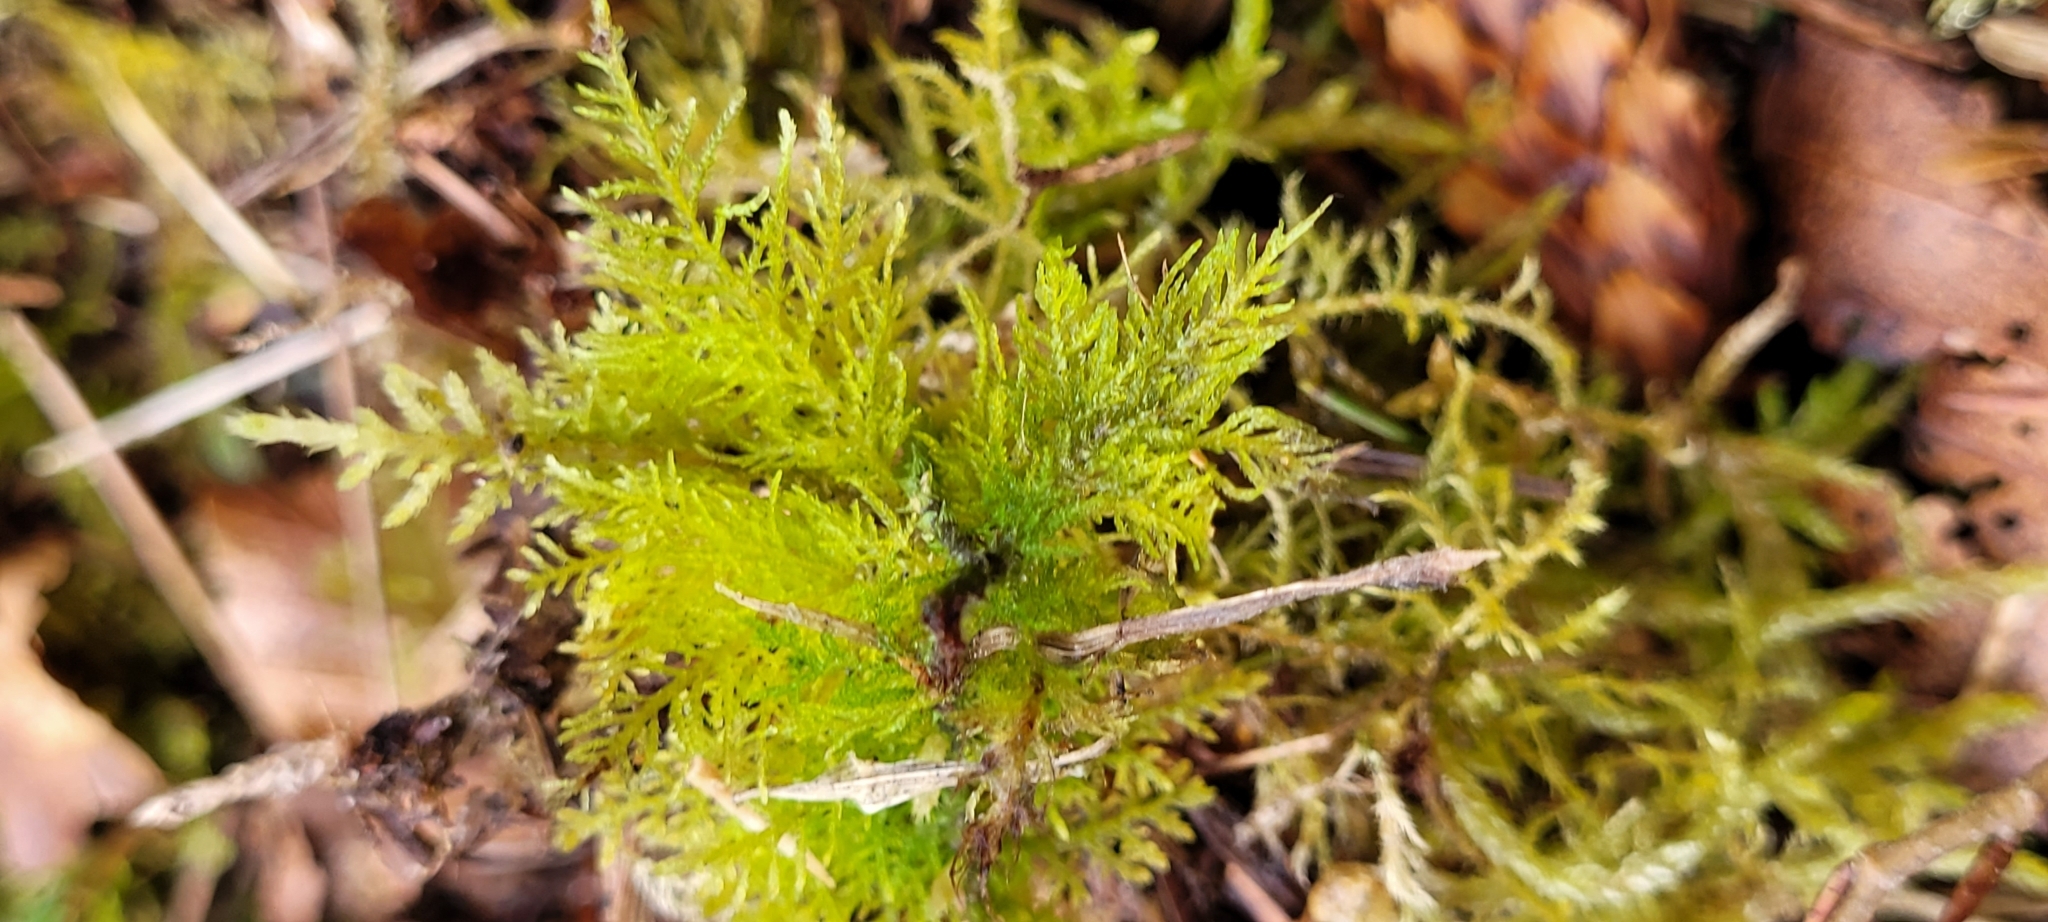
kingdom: Plantae
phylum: Bryophyta
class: Bryopsida
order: Hypnales
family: Thuidiaceae
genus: Thuidium
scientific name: Thuidium tamariscinum
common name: Common tamarisk-moss
